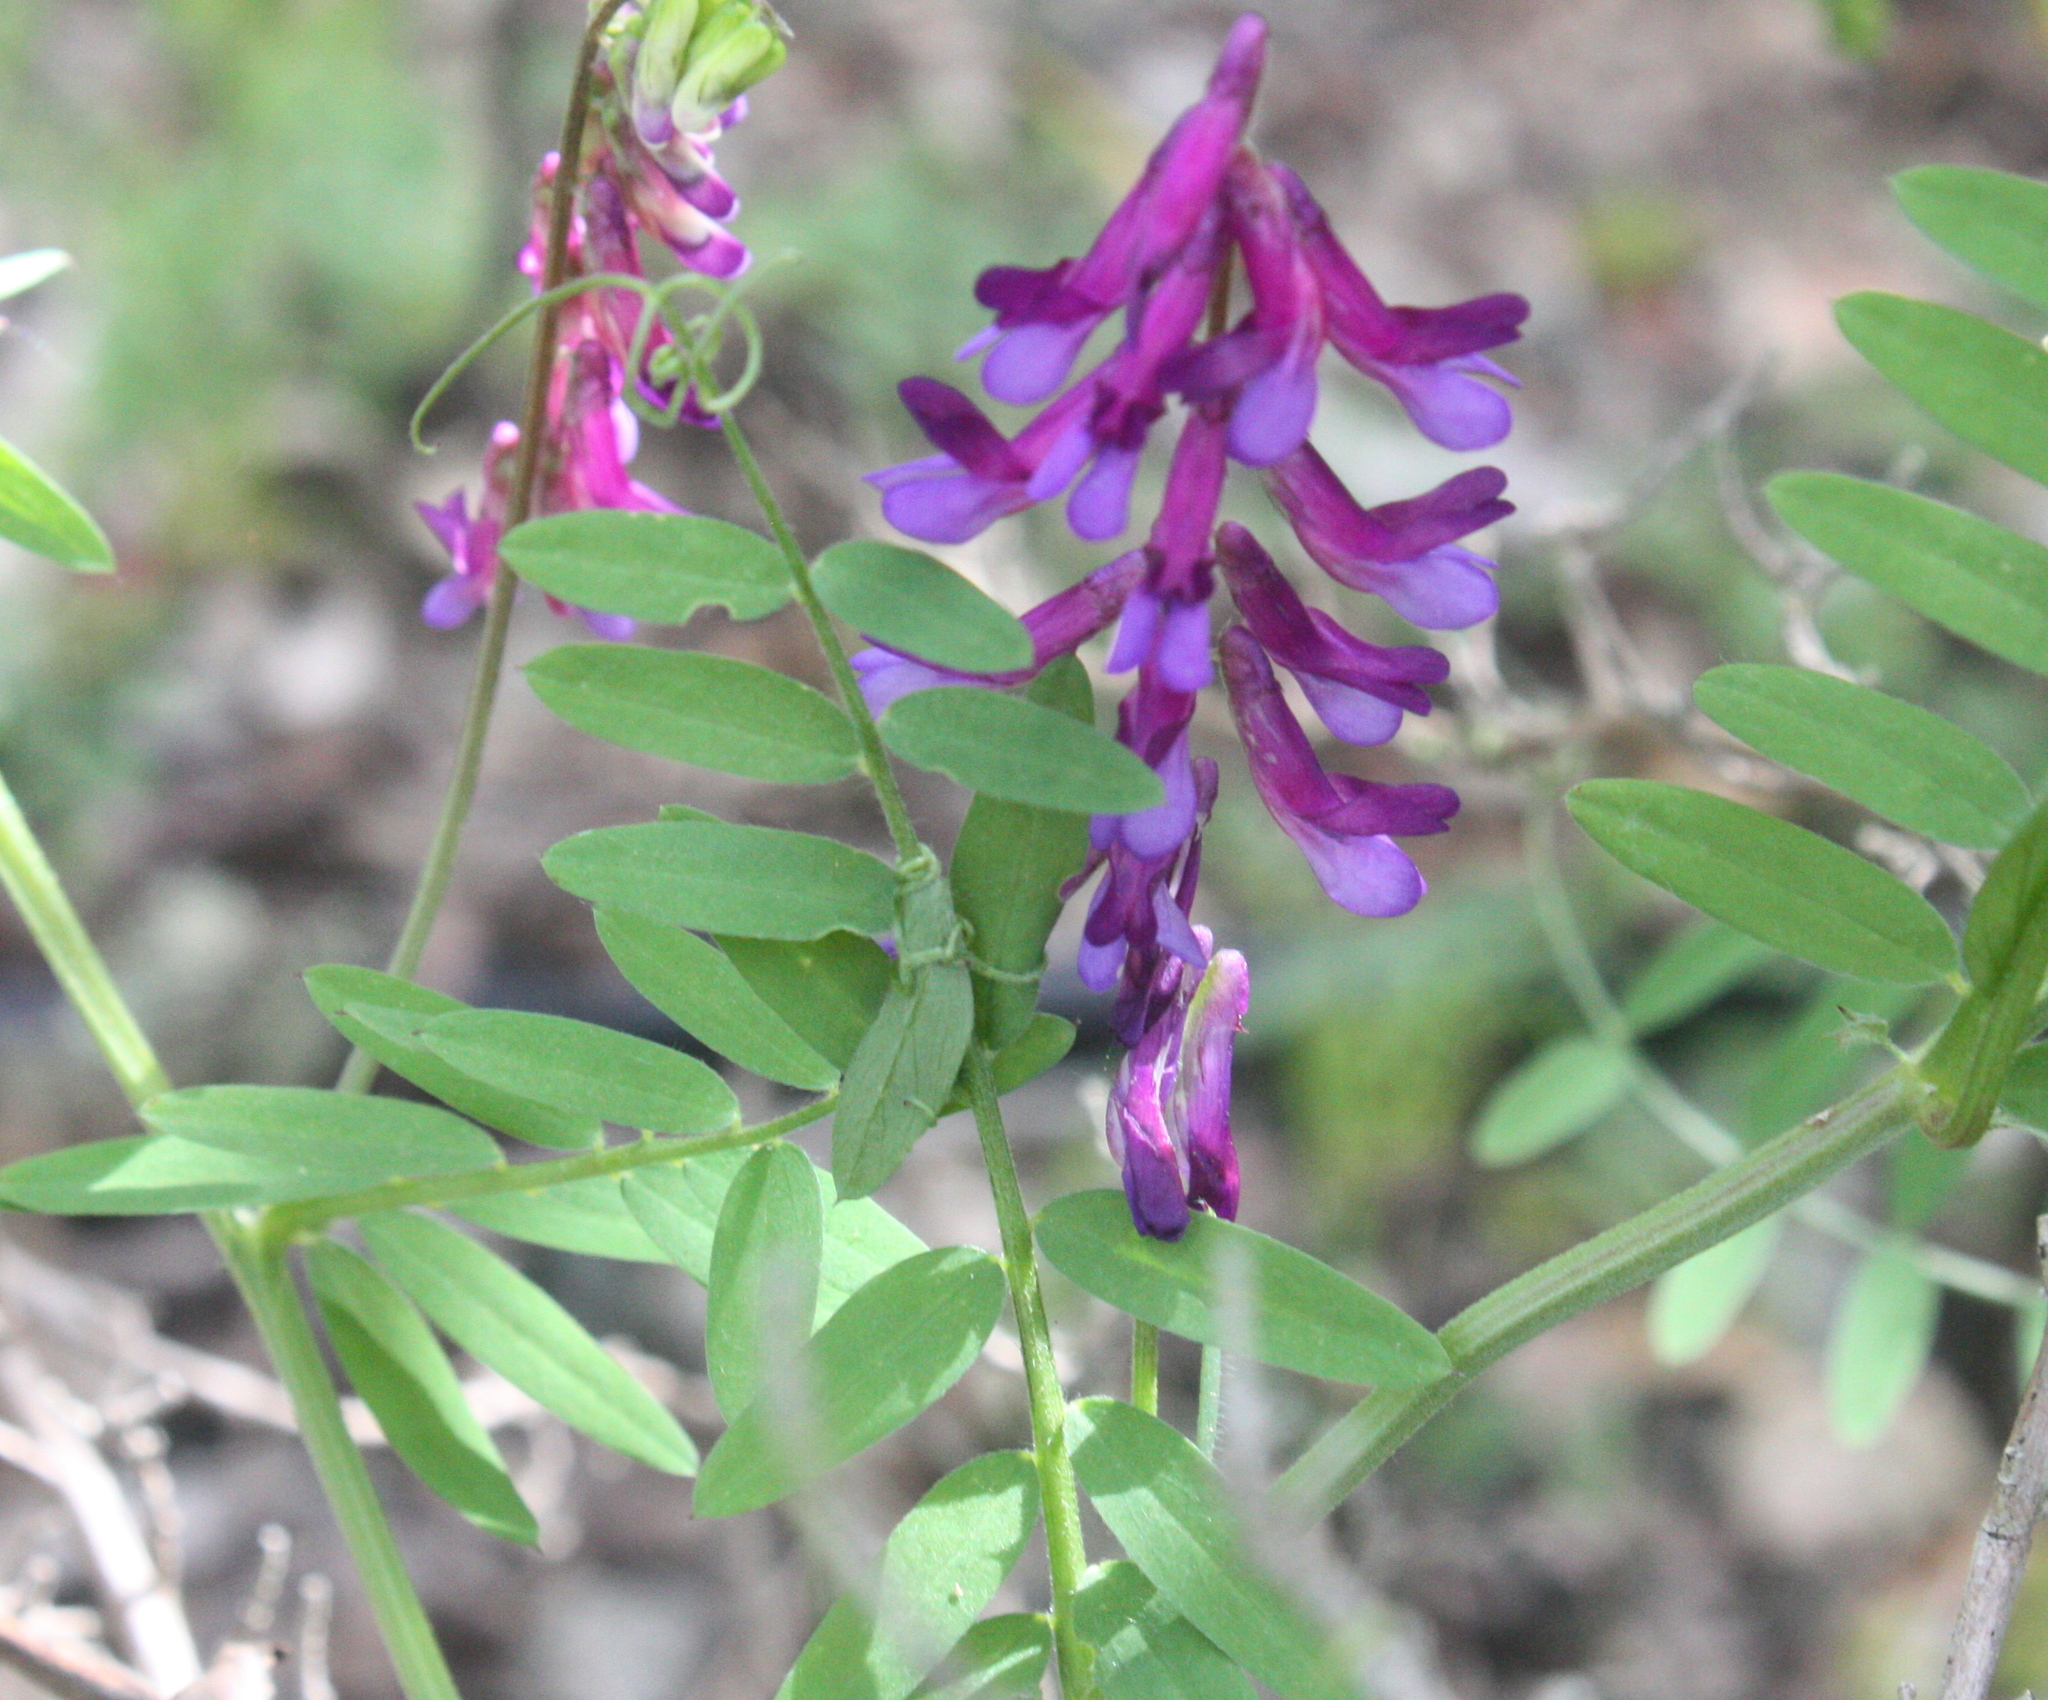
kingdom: Plantae
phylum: Tracheophyta
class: Magnoliopsida
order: Fabales
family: Fabaceae
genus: Vicia
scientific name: Vicia villosa
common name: Fodder vetch
